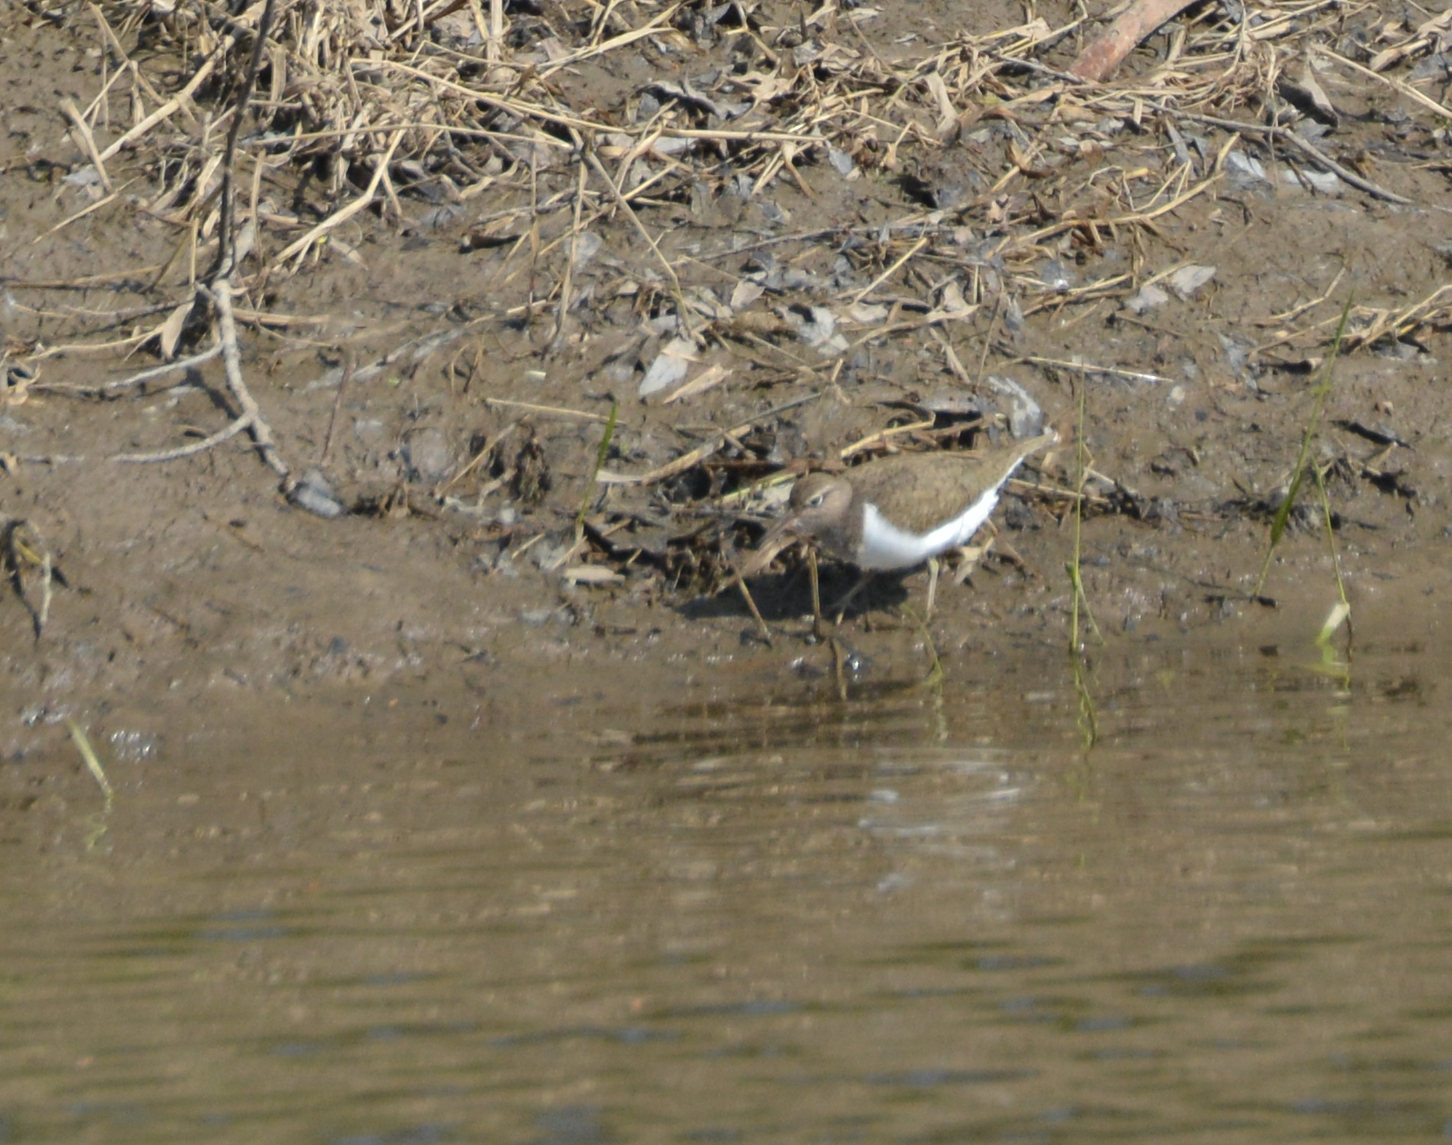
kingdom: Animalia
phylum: Chordata
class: Aves
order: Charadriiformes
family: Scolopacidae
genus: Actitis
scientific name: Actitis hypoleucos
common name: Common sandpiper
